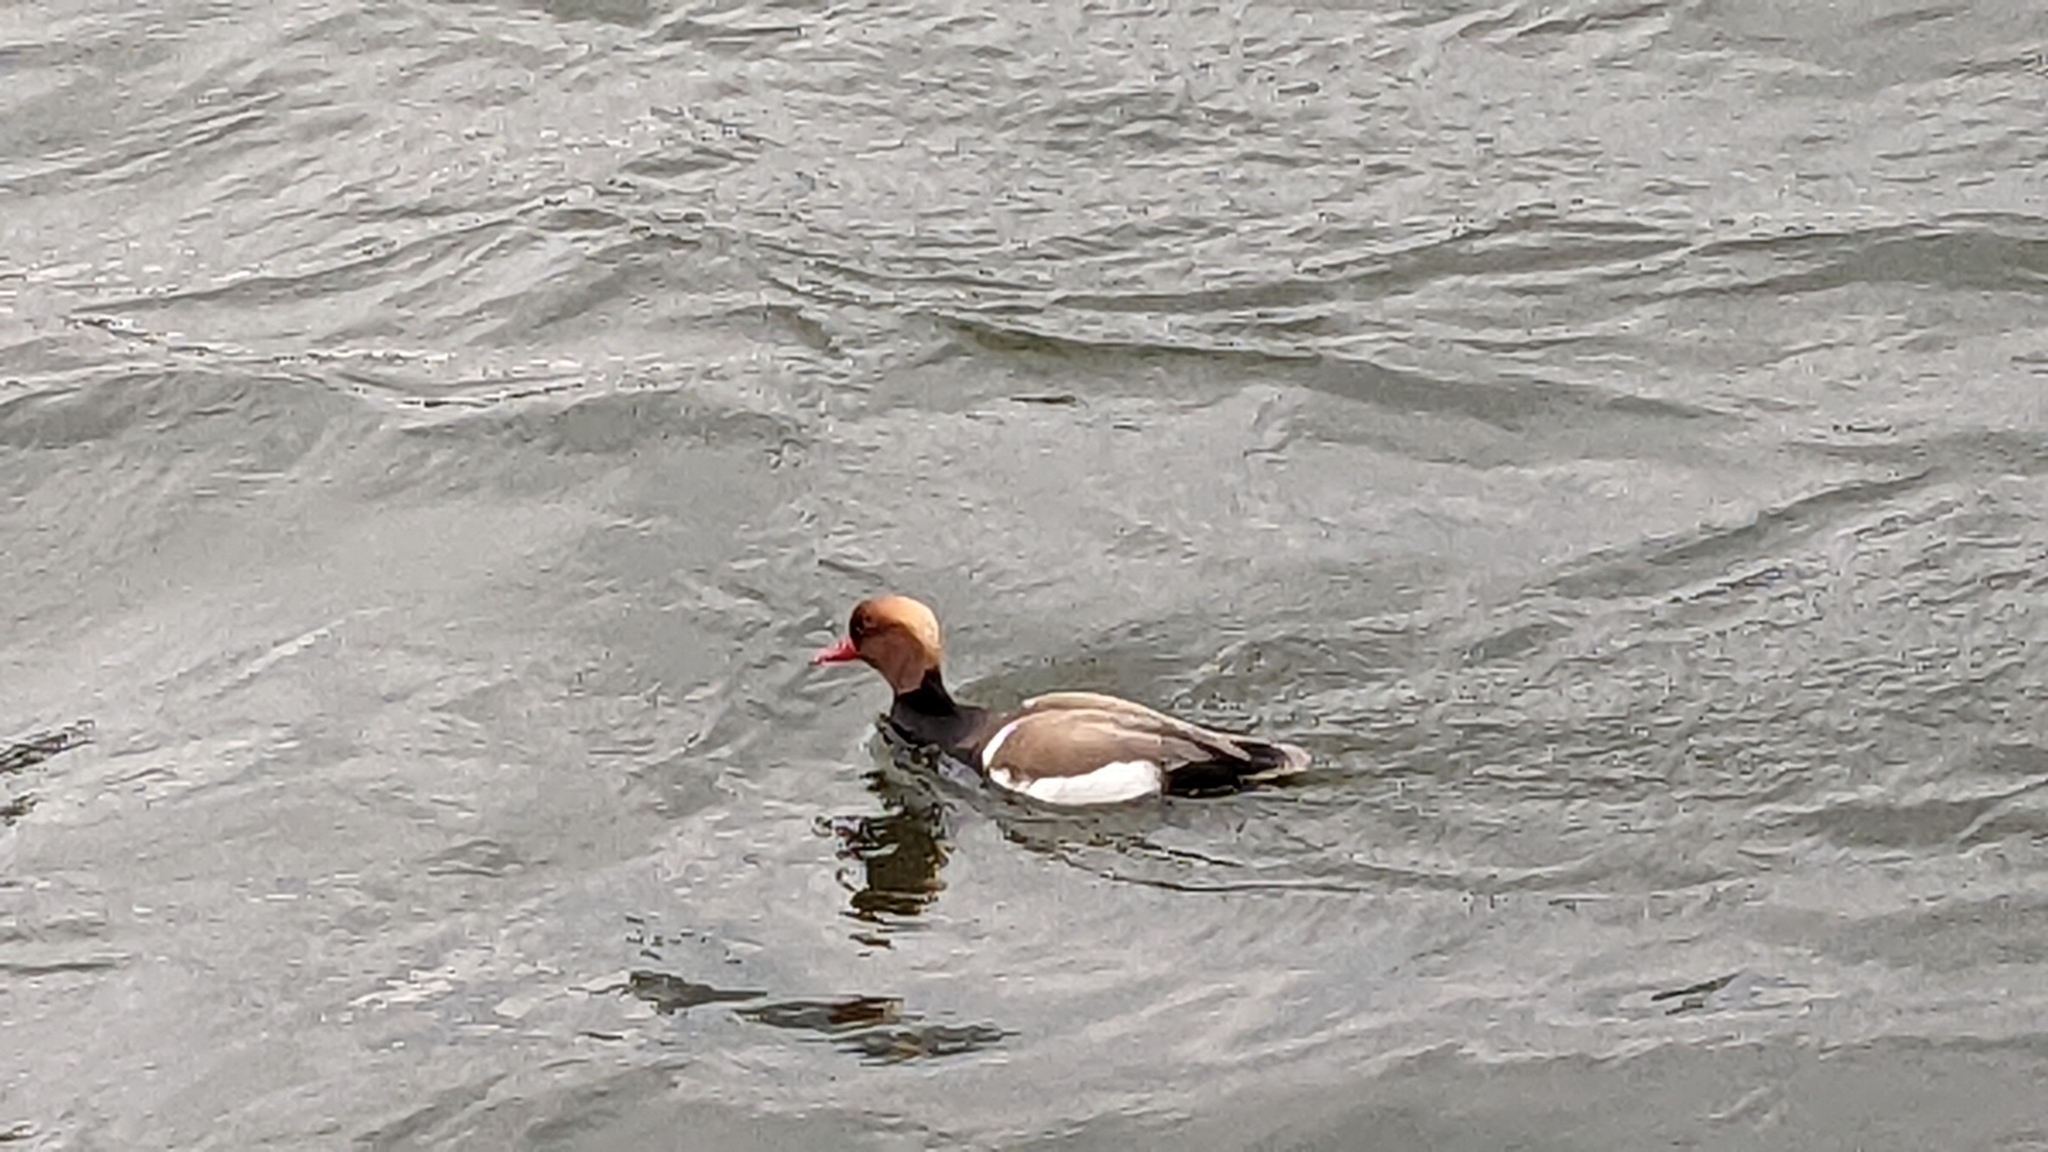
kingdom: Animalia
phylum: Chordata
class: Aves
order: Anseriformes
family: Anatidae
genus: Netta
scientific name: Netta rufina
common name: Red-crested pochard
